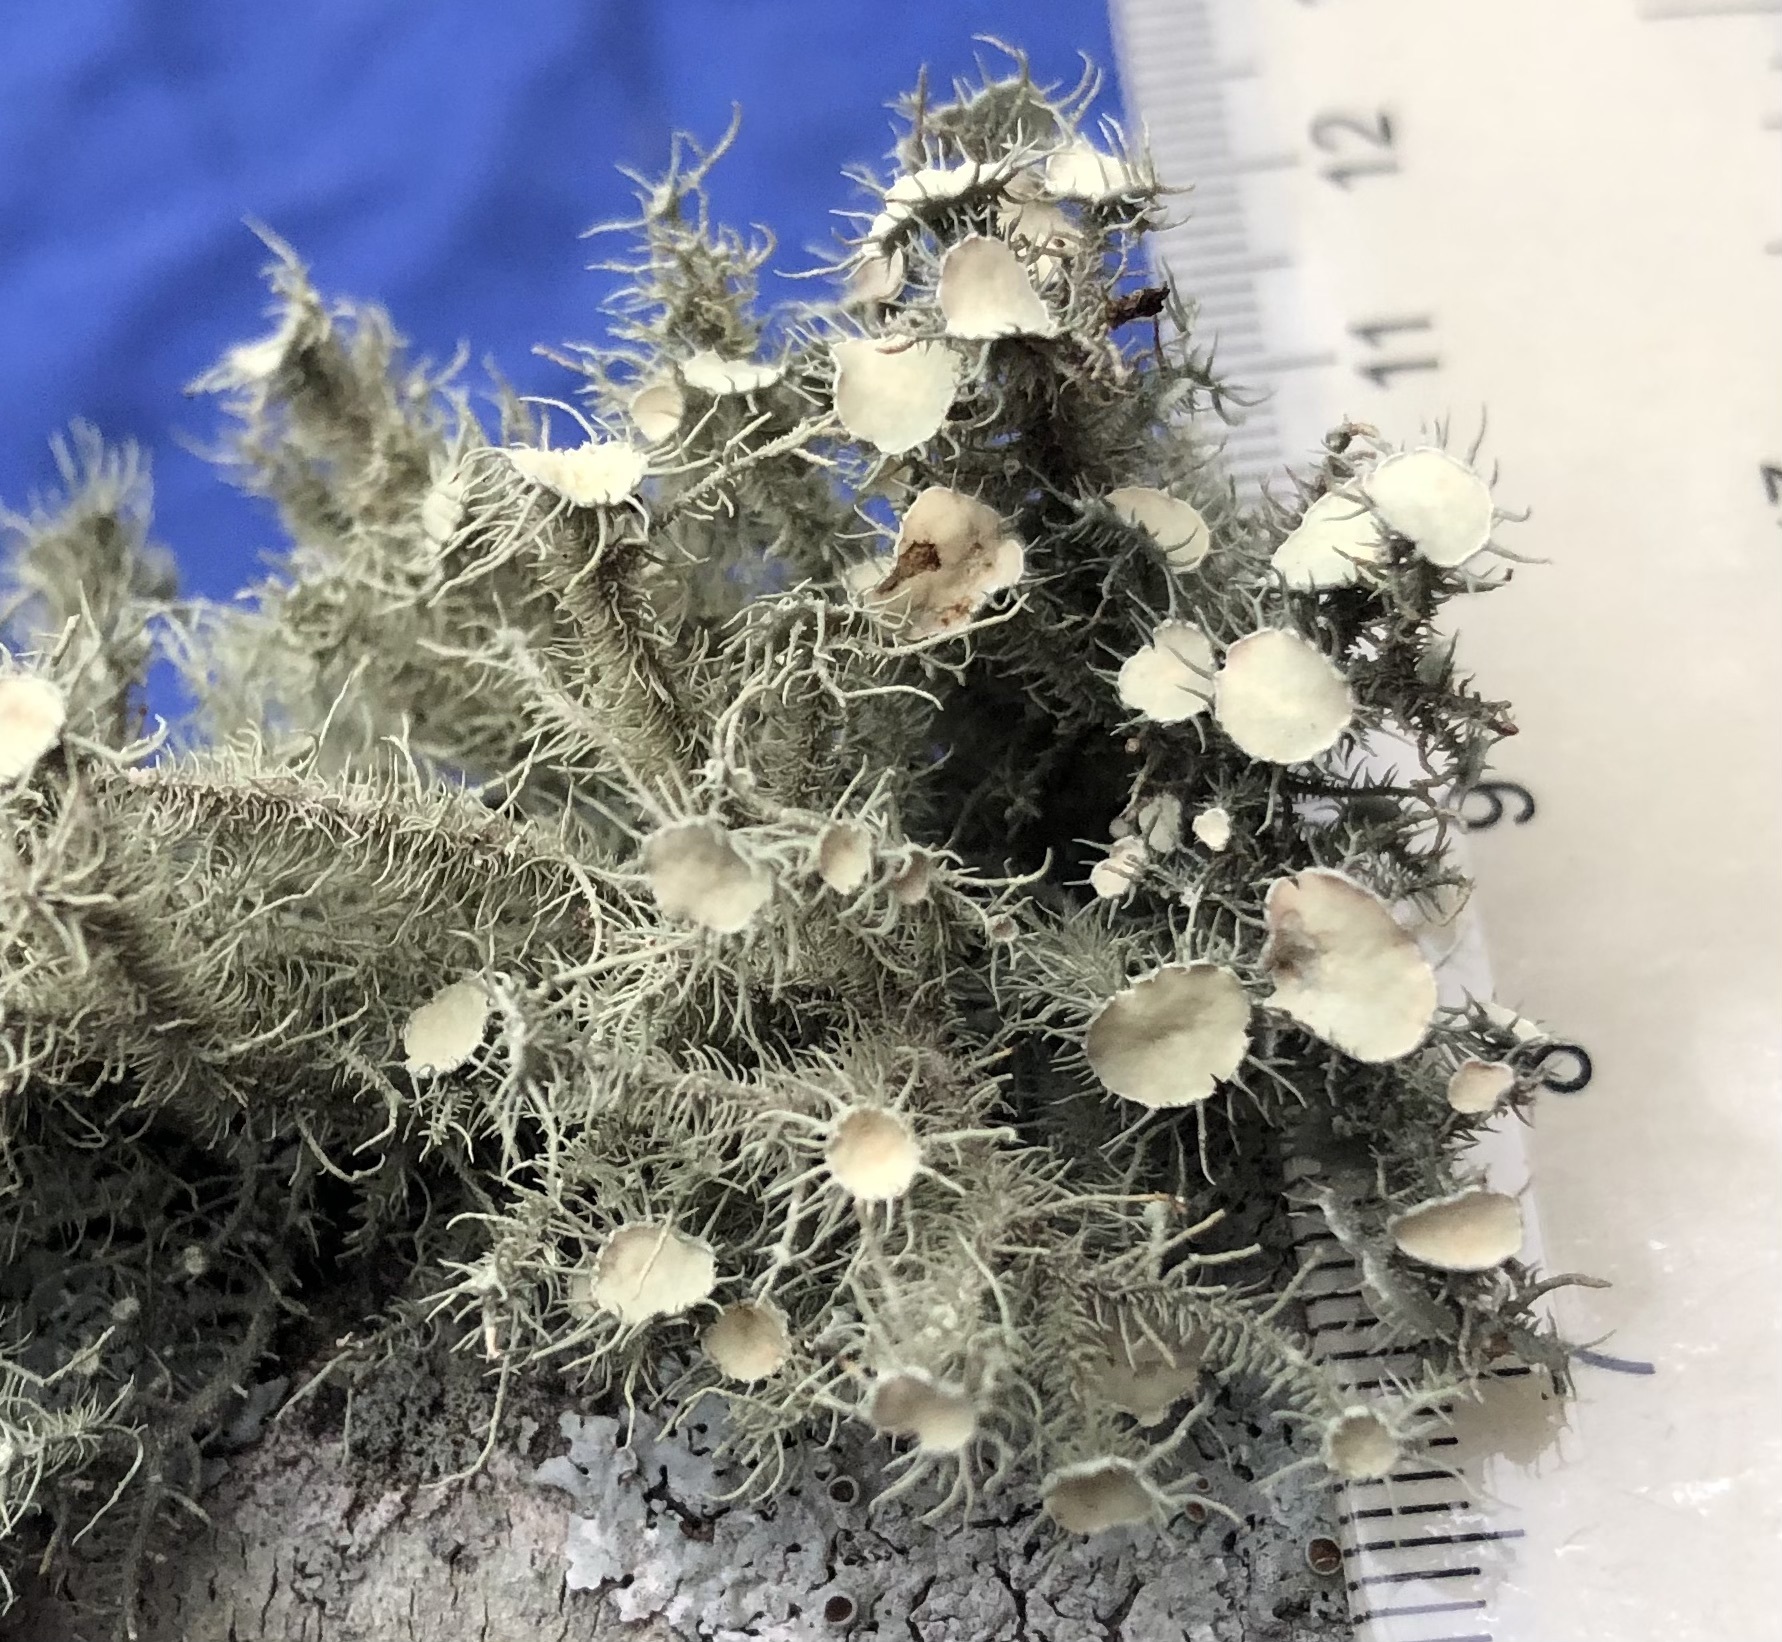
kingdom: Fungi
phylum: Ascomycota
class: Lecanoromycetes
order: Lecanorales
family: Parmeliaceae
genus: Usnea
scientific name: Usnea strigosa
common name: Bushy beard lichen
